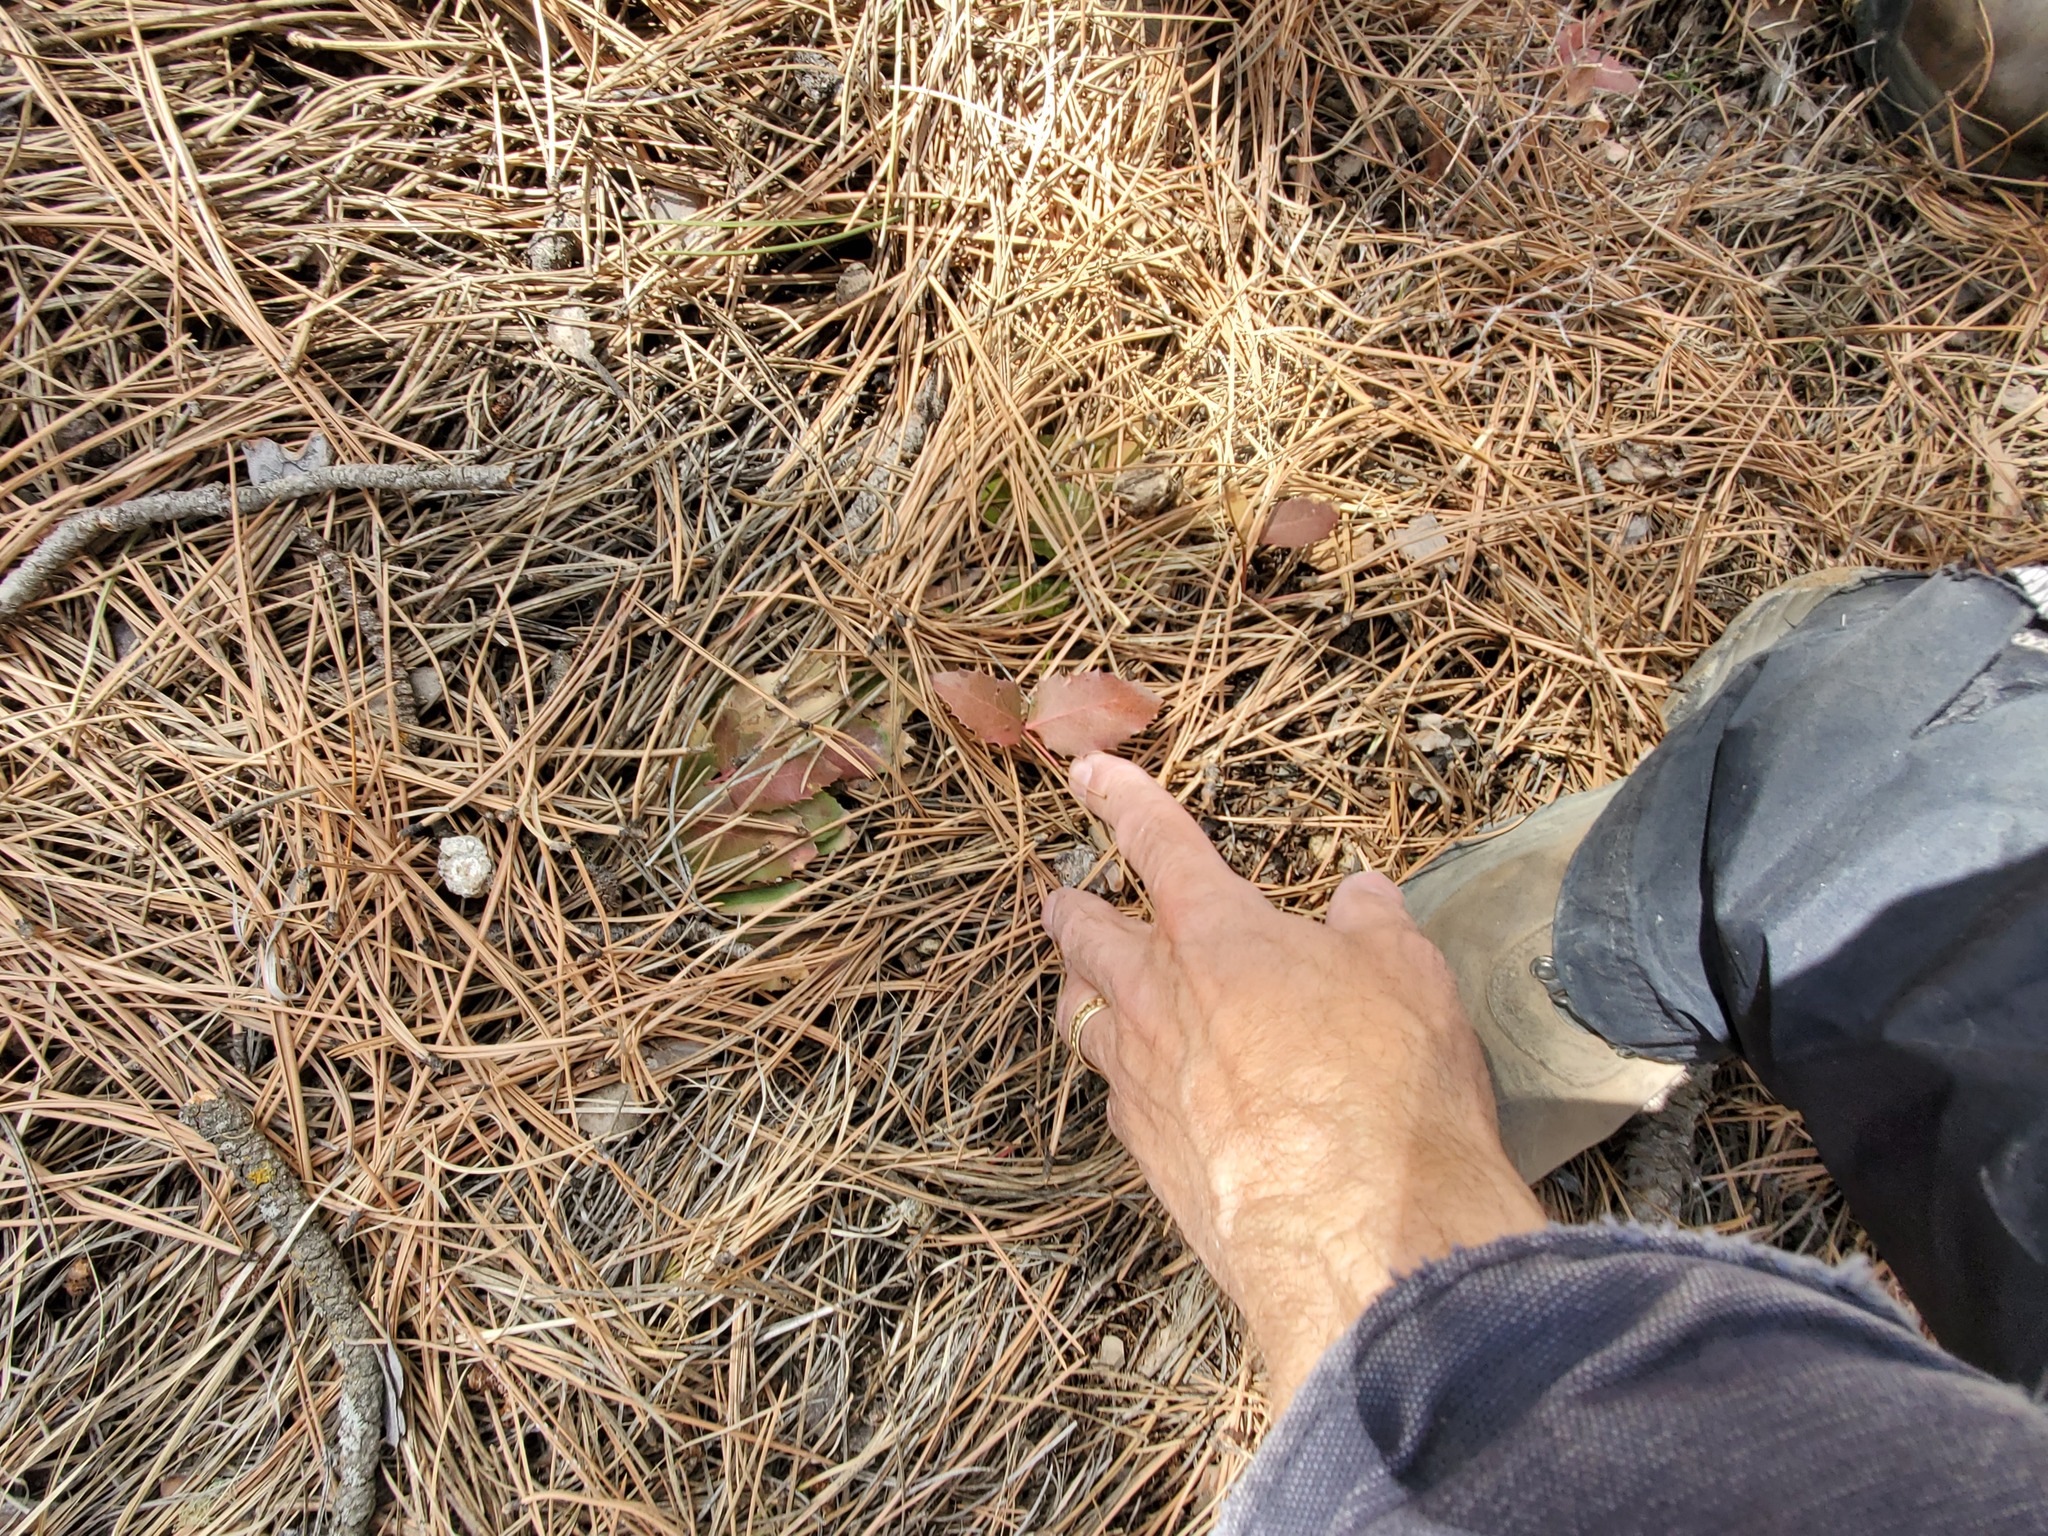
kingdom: Plantae
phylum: Tracheophyta
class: Magnoliopsida
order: Ranunculales
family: Berberidaceae
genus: Mahonia
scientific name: Mahonia repens
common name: Creeping oregon-grape
